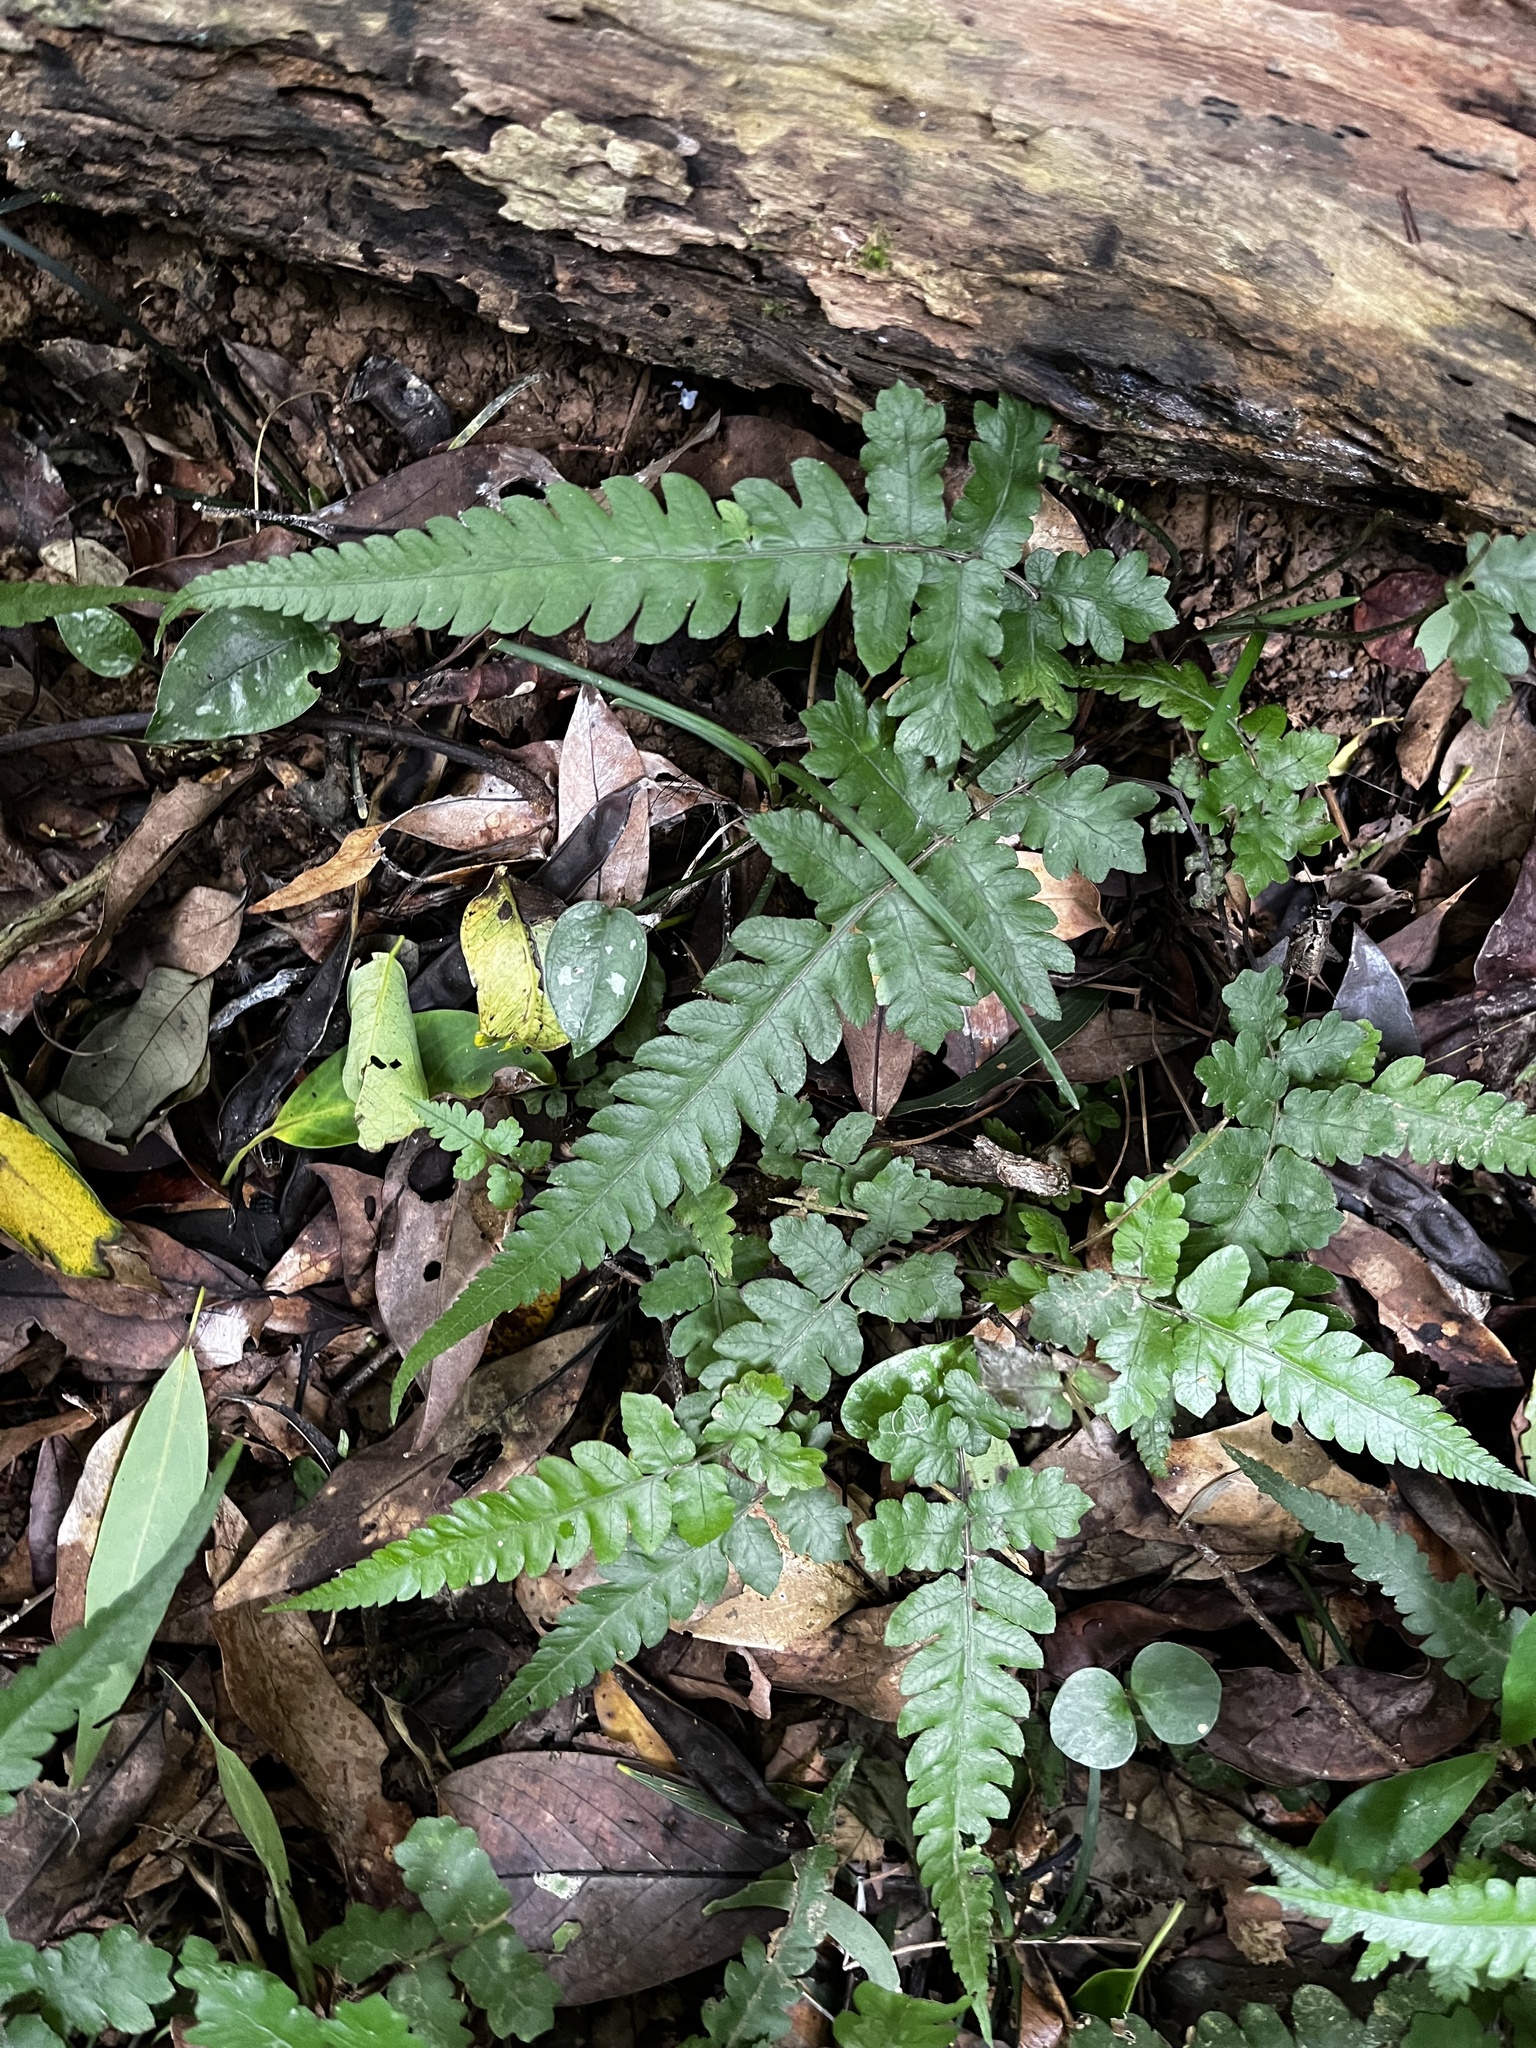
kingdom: Plantae
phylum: Tracheophyta
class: Polypodiopsida
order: Polypodiales
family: Thelypteridaceae
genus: Christella
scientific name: Christella ensifera
